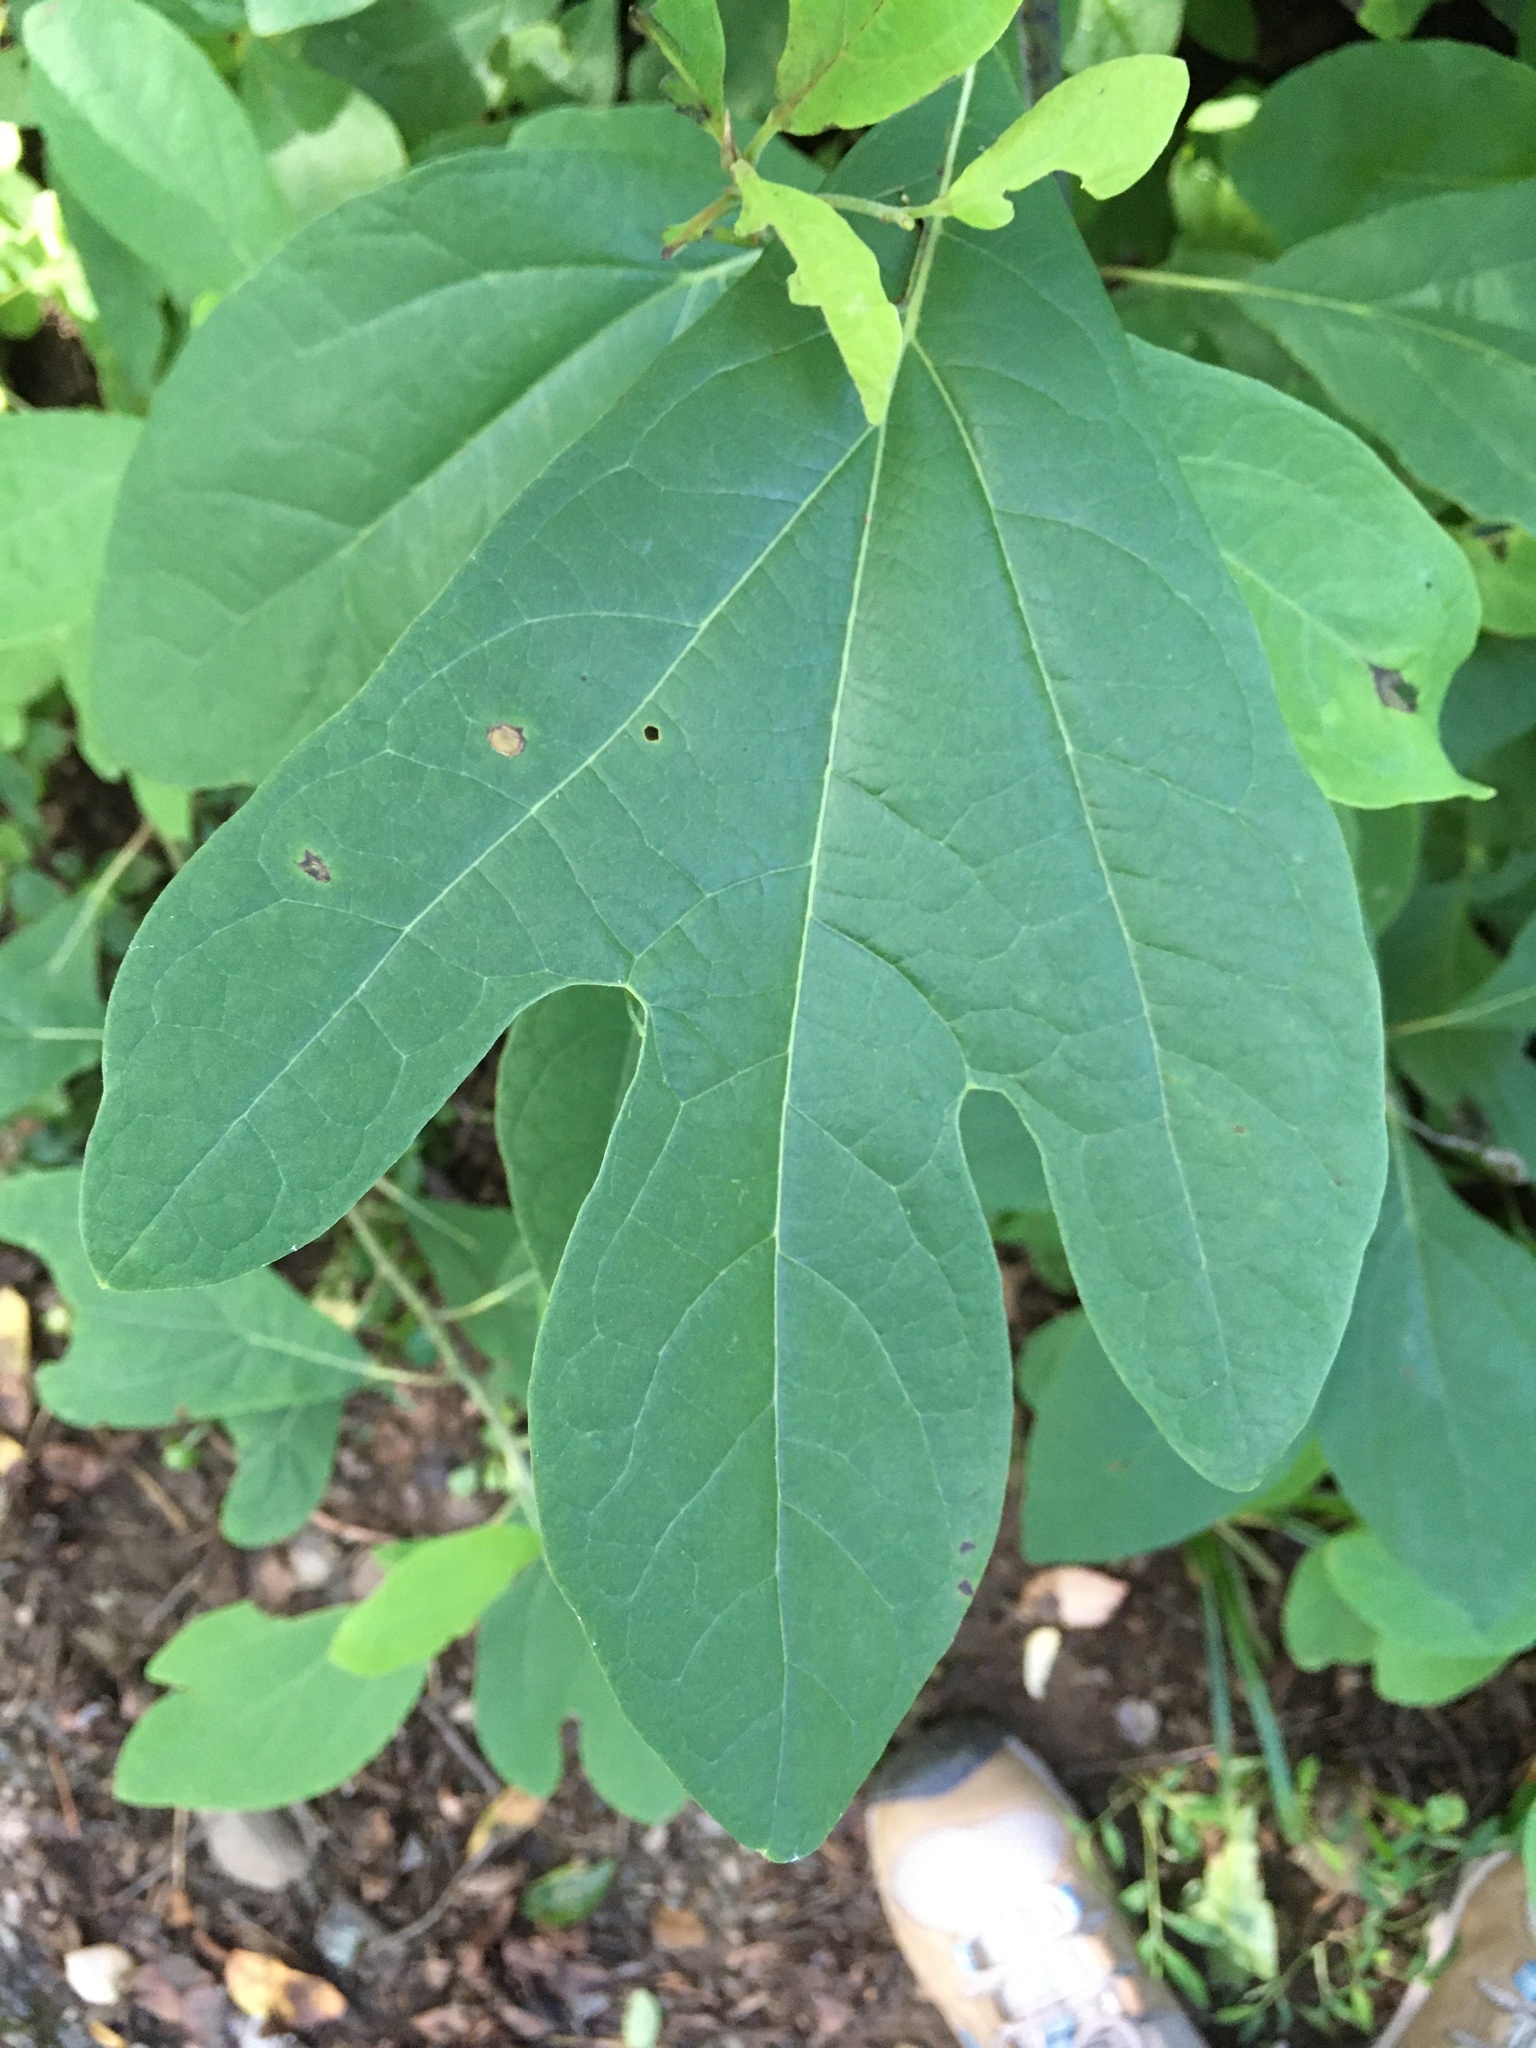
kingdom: Plantae
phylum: Tracheophyta
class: Magnoliopsida
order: Laurales
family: Lauraceae
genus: Sassafras
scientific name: Sassafras albidum
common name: Sassafras
